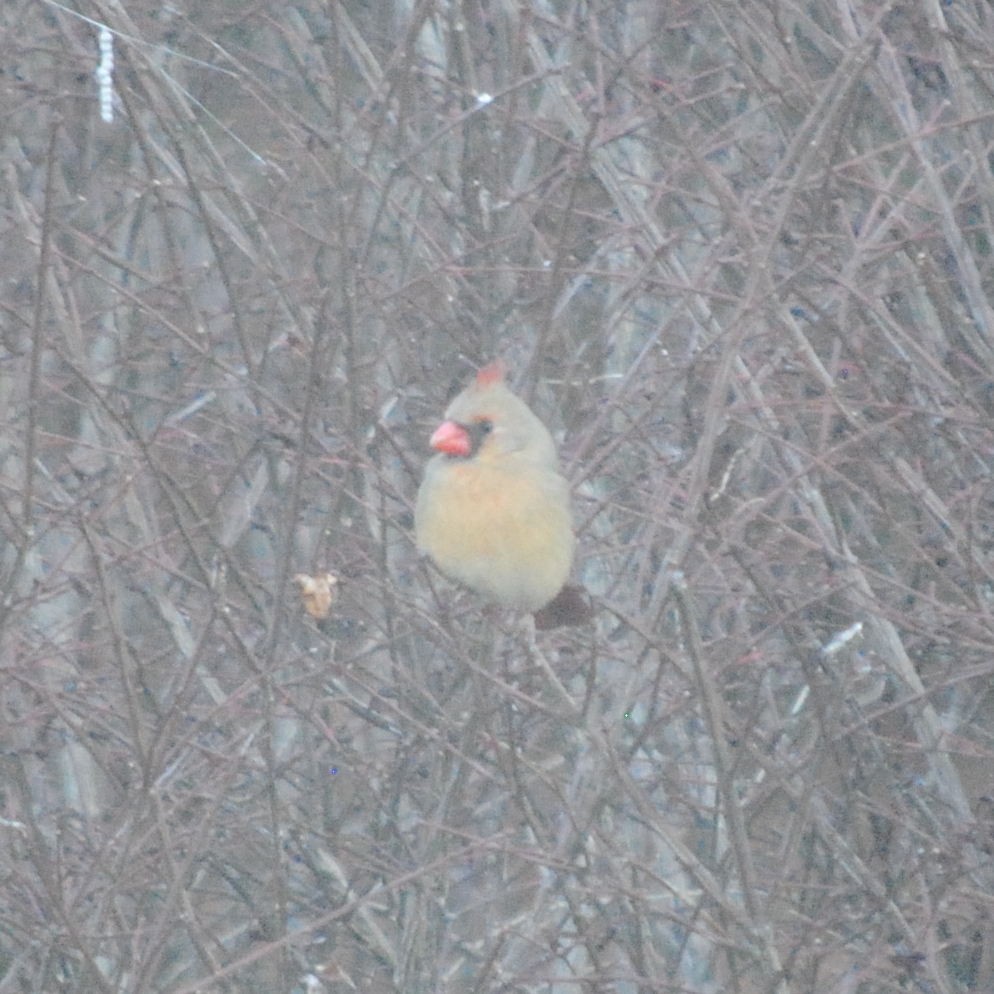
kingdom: Animalia
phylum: Chordata
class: Aves
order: Passeriformes
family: Cardinalidae
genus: Cardinalis
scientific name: Cardinalis cardinalis
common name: Northern cardinal
